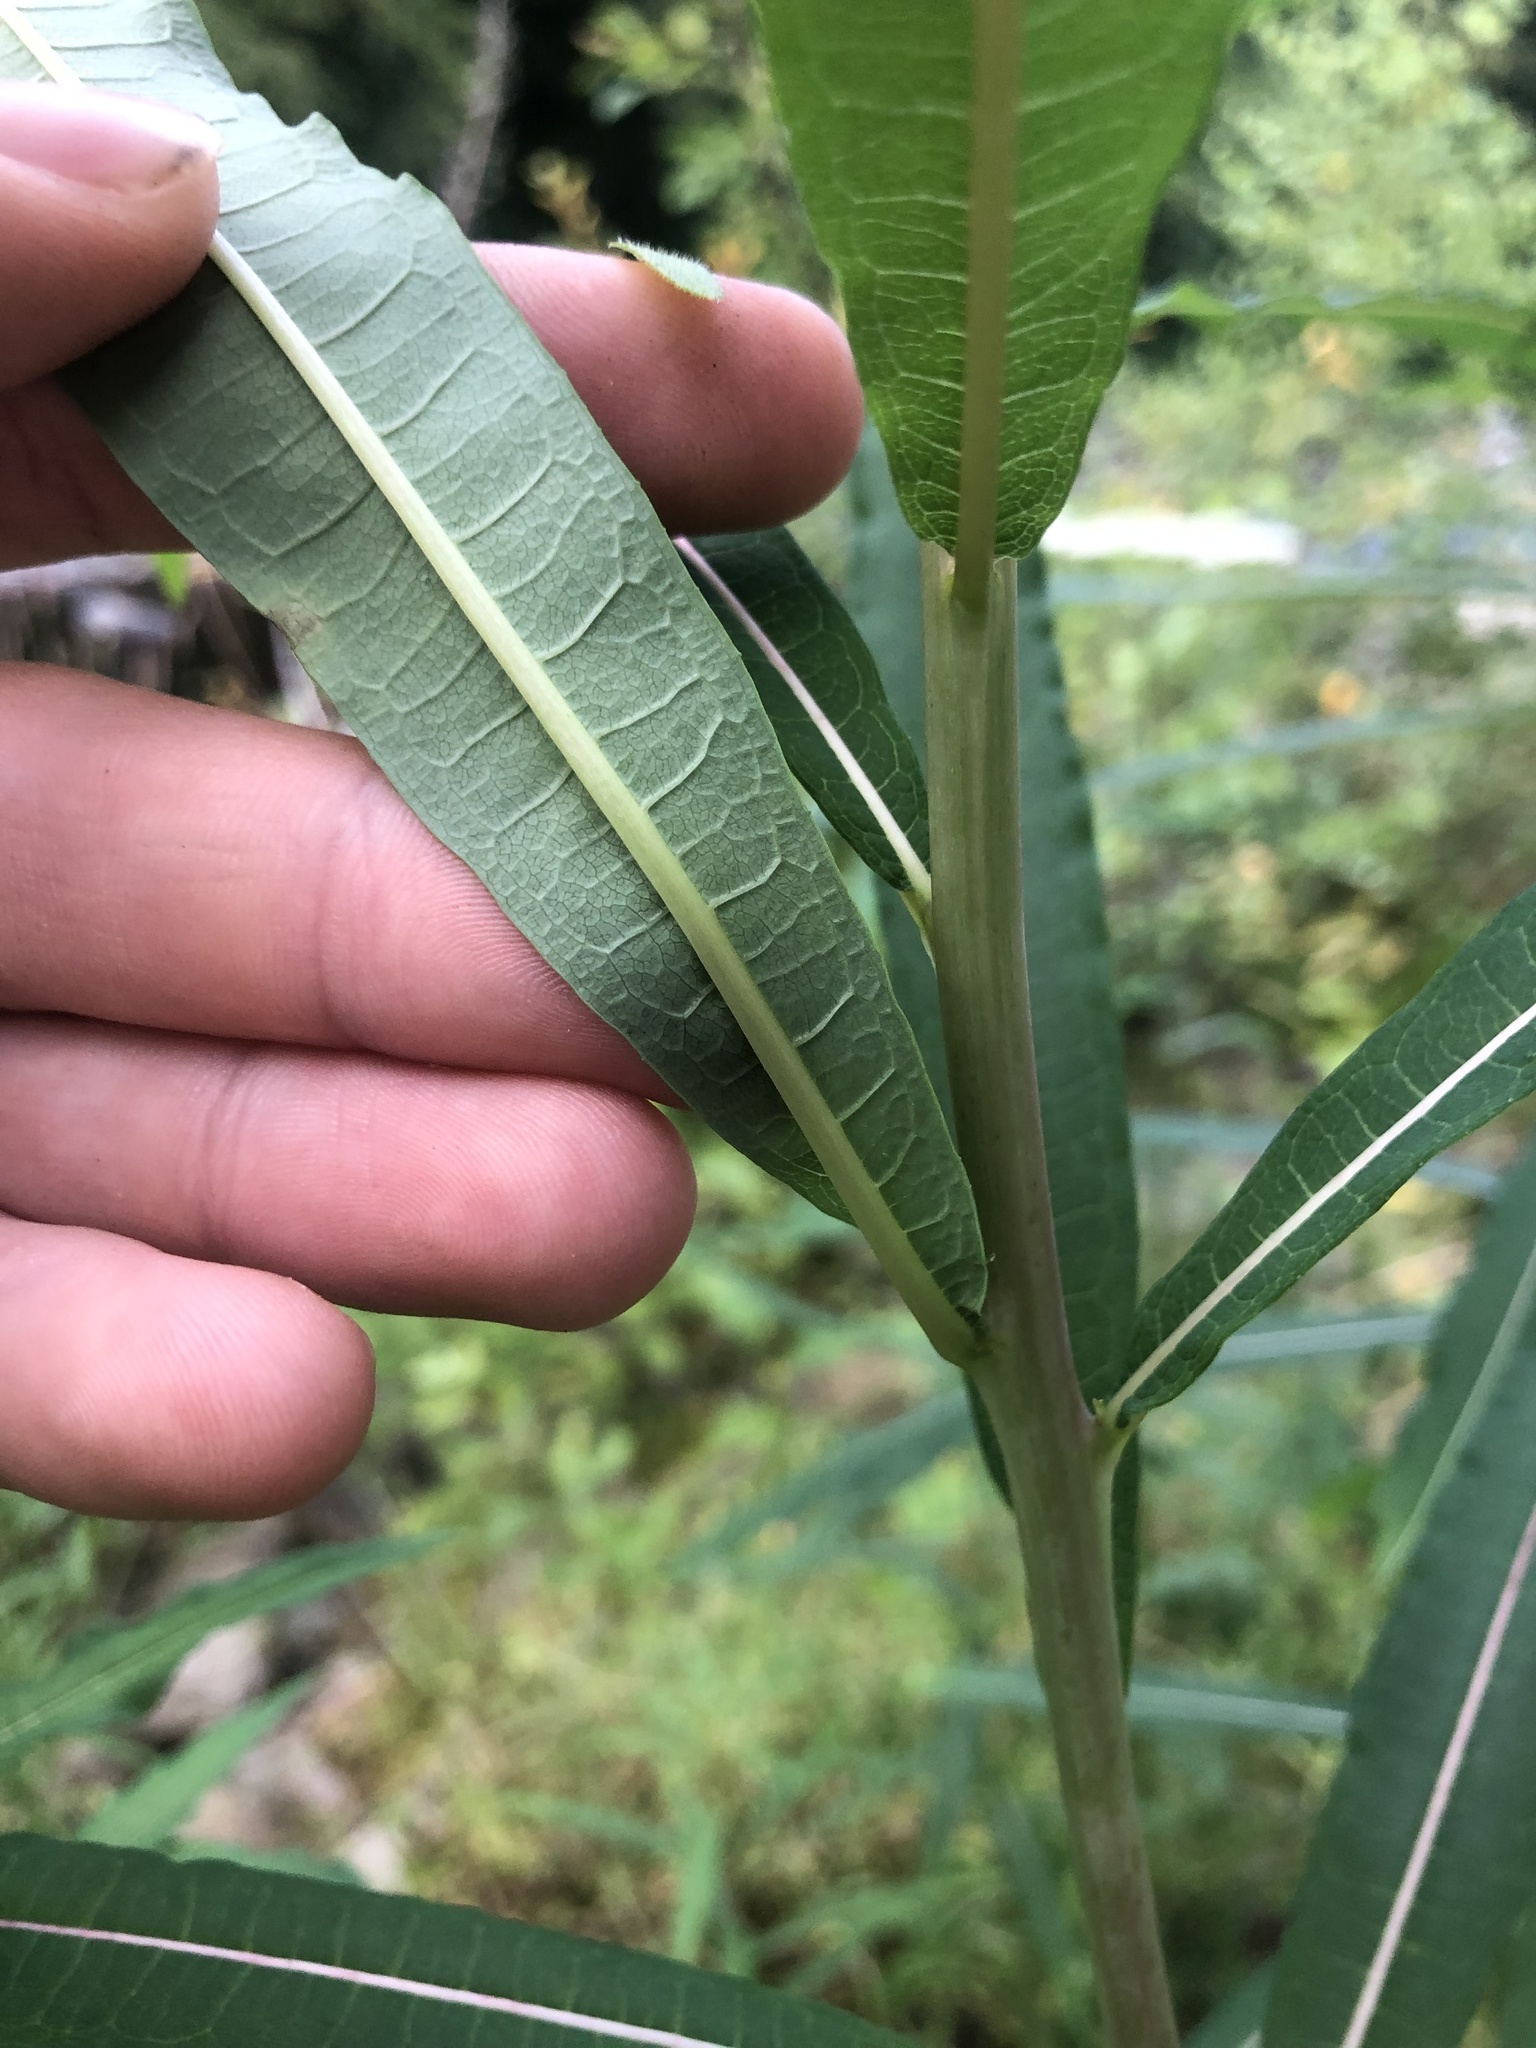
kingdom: Plantae
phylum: Tracheophyta
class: Magnoliopsida
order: Myrtales
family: Onagraceae
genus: Chamaenerion
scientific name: Chamaenerion angustifolium
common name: Fireweed
